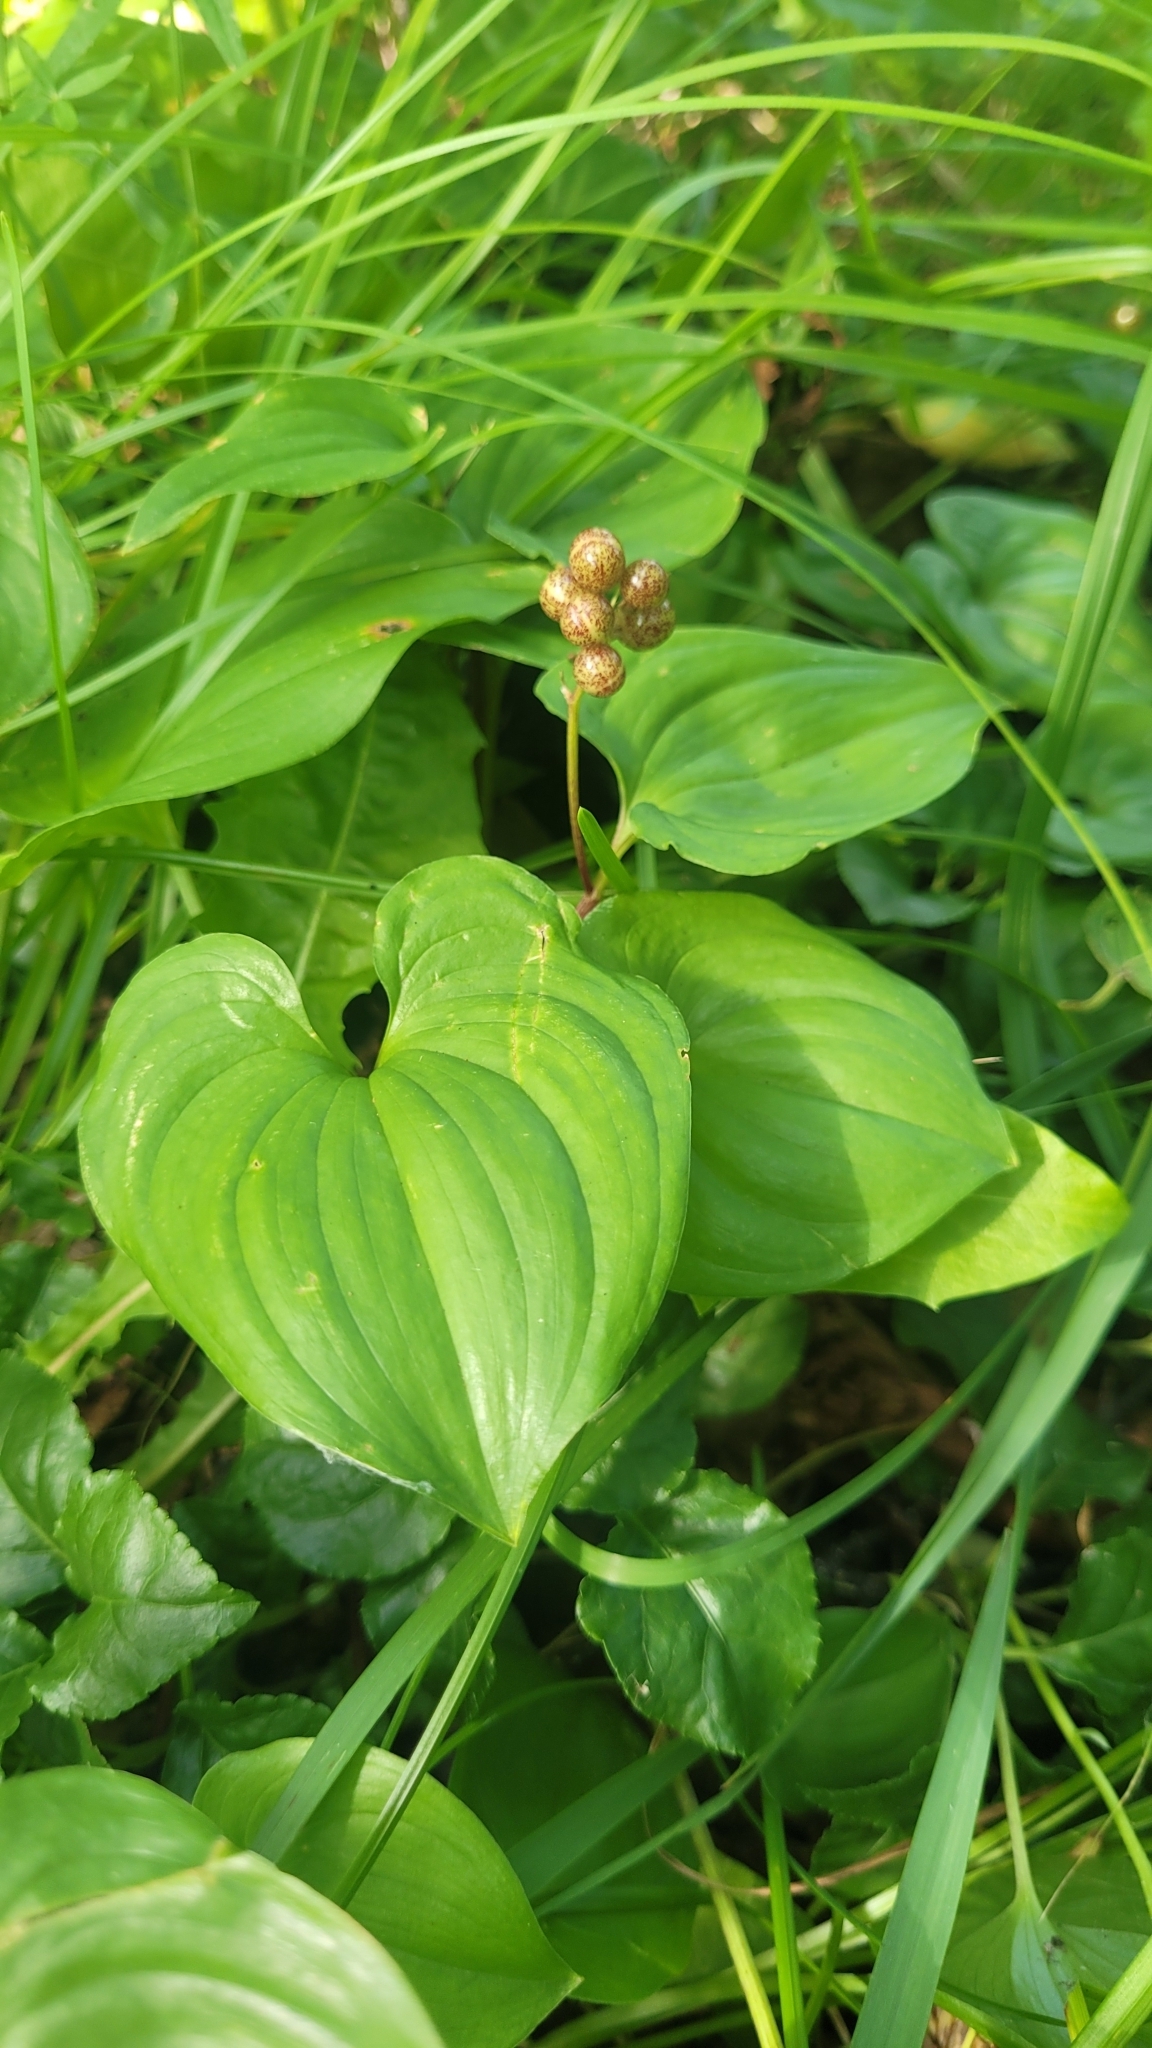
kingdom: Plantae
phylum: Tracheophyta
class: Liliopsida
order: Asparagales
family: Asparagaceae
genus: Maianthemum
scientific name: Maianthemum dilatatum
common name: False lily-of-the-valley
